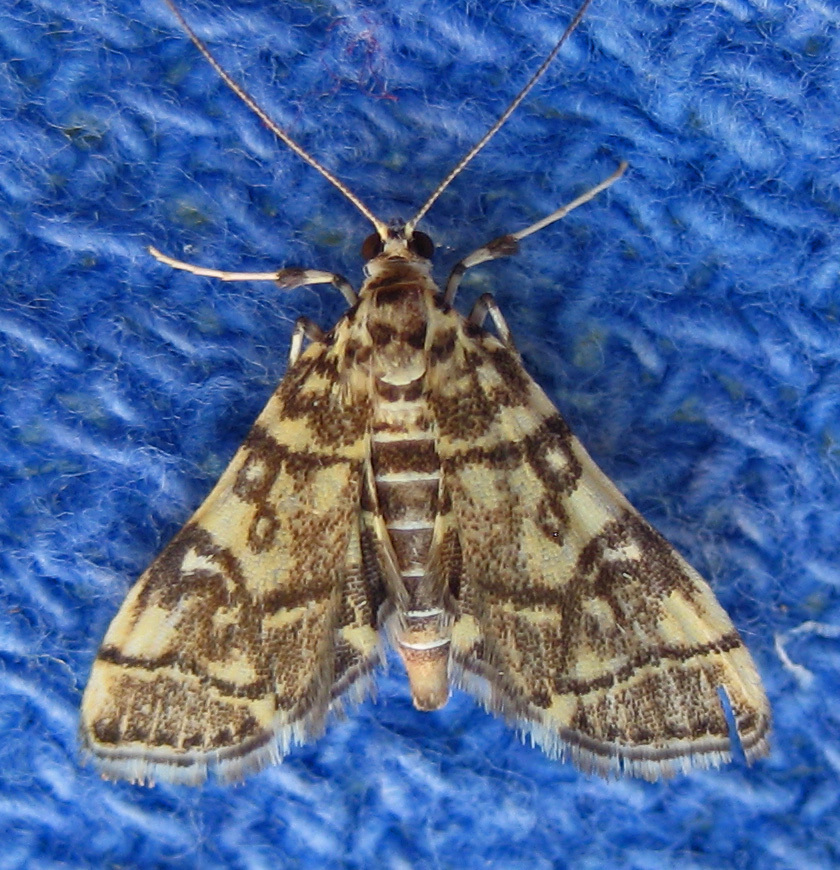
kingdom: Animalia
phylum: Arthropoda
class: Insecta
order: Lepidoptera
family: Crambidae
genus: Apogeshna
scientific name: Apogeshna stenialis
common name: Checkered apogeshna moth
